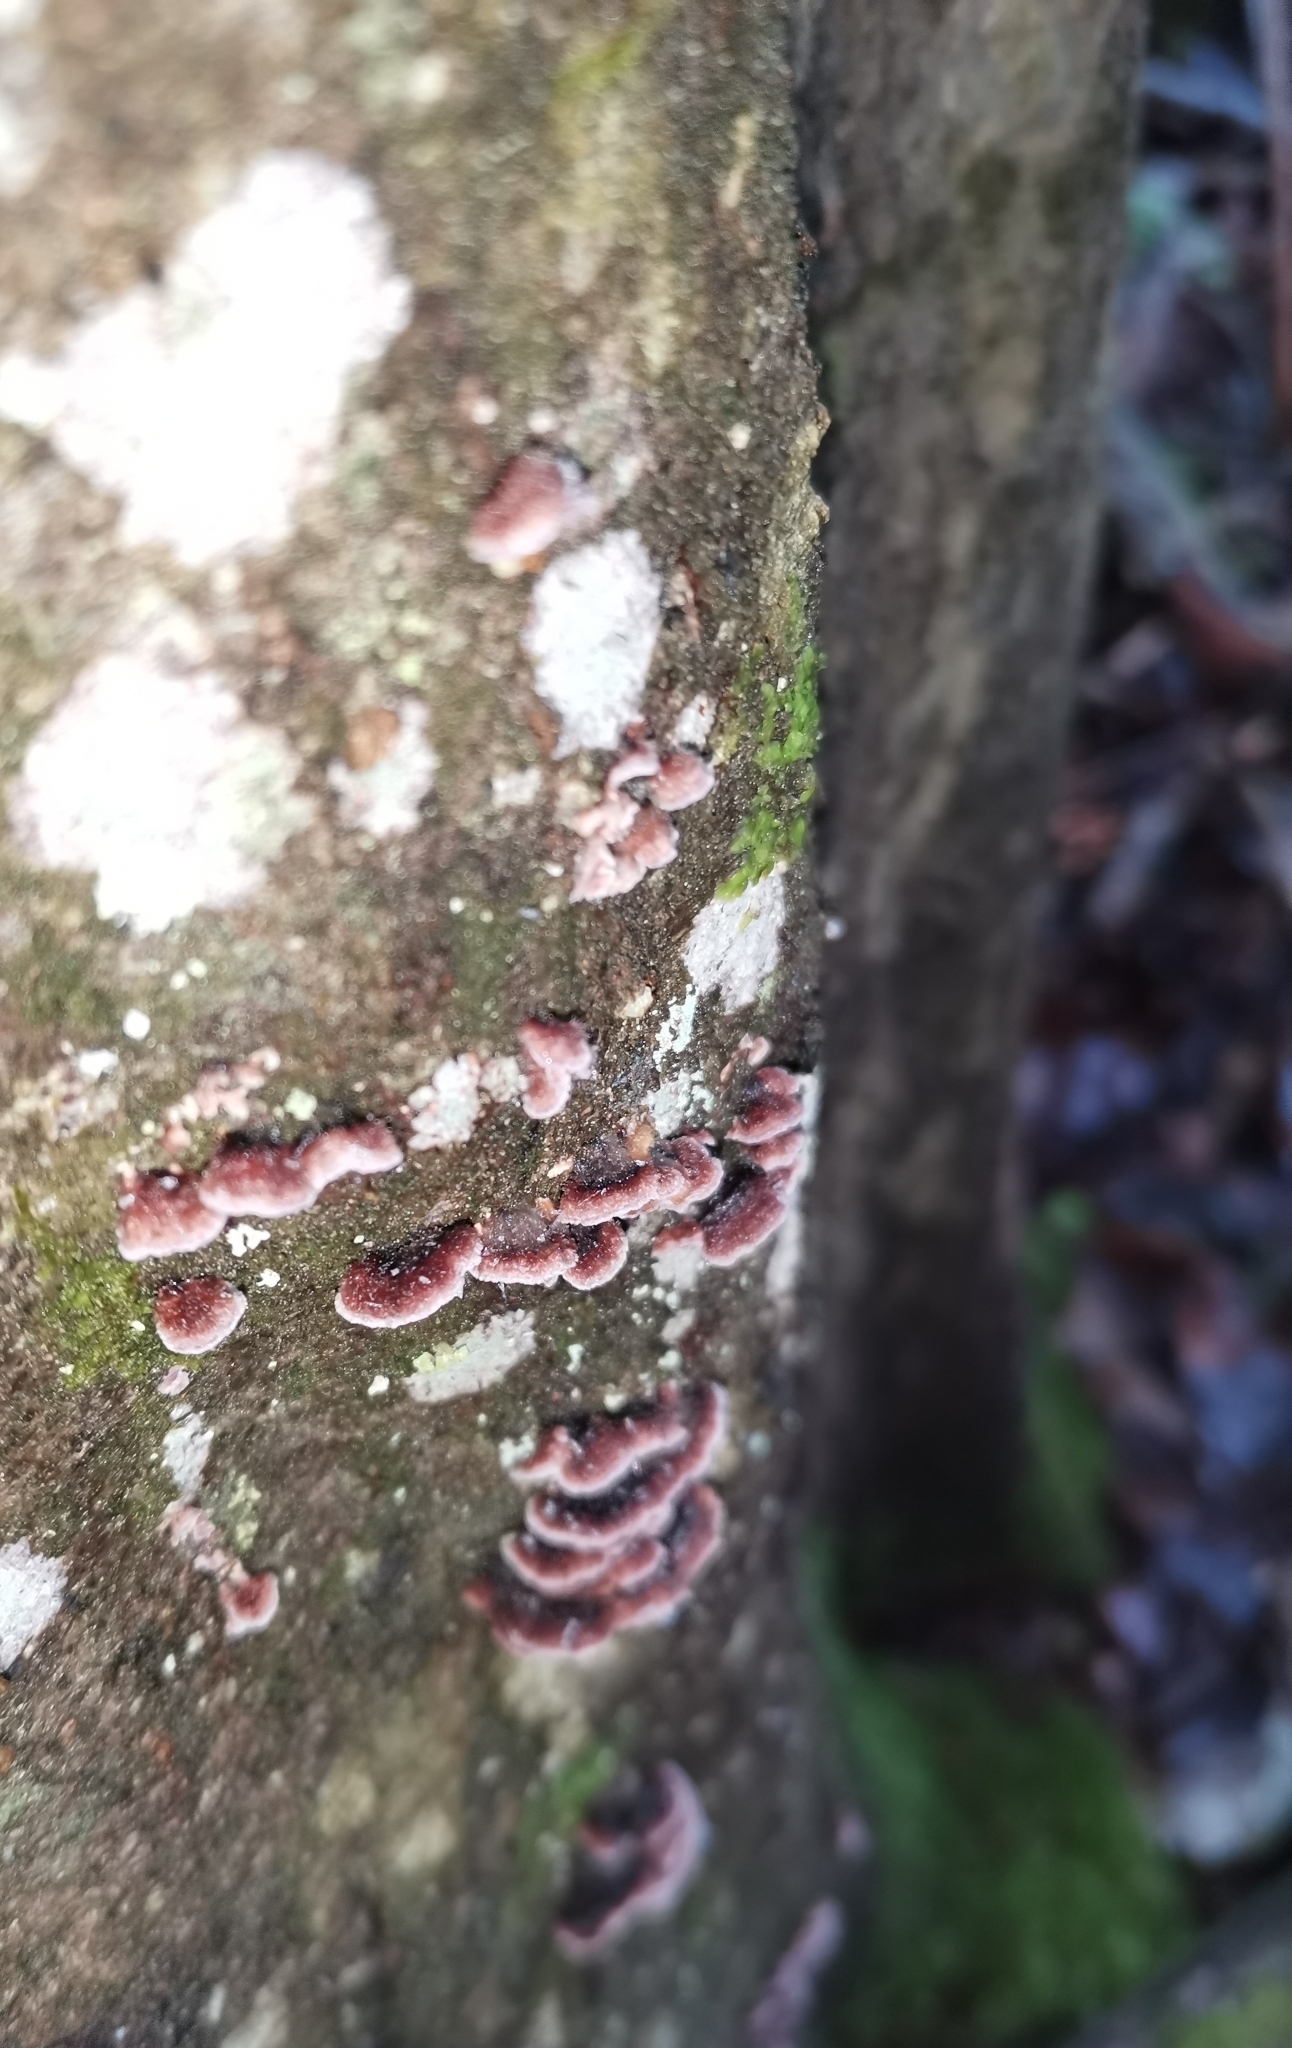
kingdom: Fungi
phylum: Basidiomycota
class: Agaricomycetes
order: Agaricales
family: Cyphellaceae
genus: Chondrostereum
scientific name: Chondrostereum purpureum
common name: Silver leaf disease
